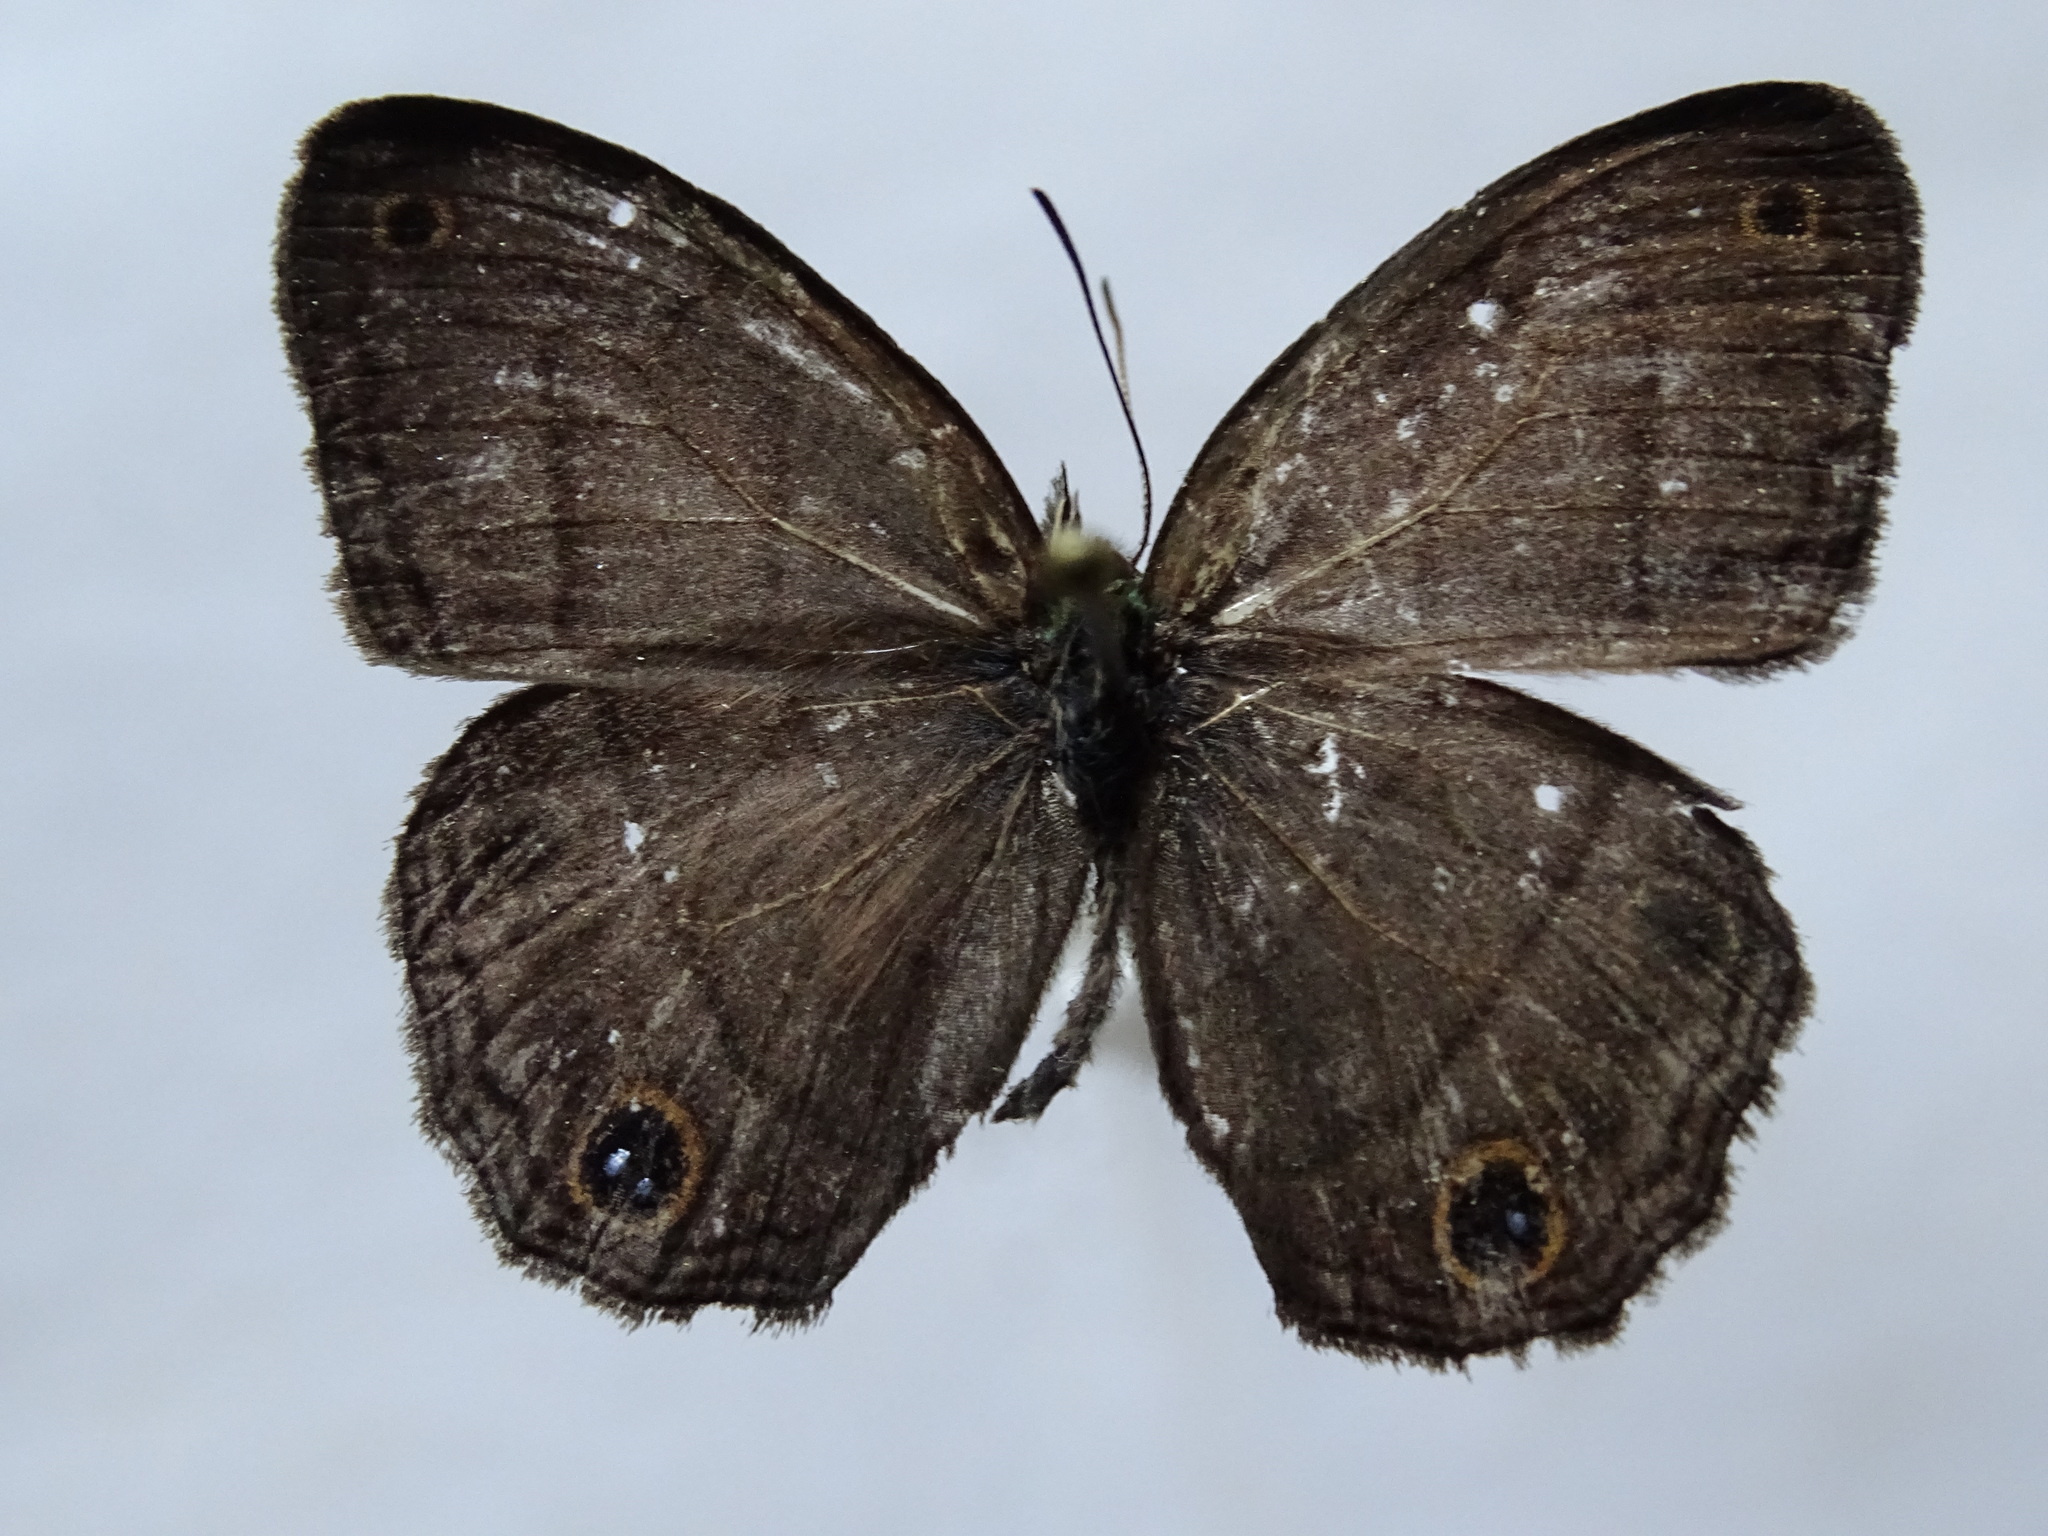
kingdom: Animalia
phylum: Arthropoda
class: Insecta
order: Lepidoptera
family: Nymphalidae
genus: Euptychia
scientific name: Euptychia Cissia pompilia
